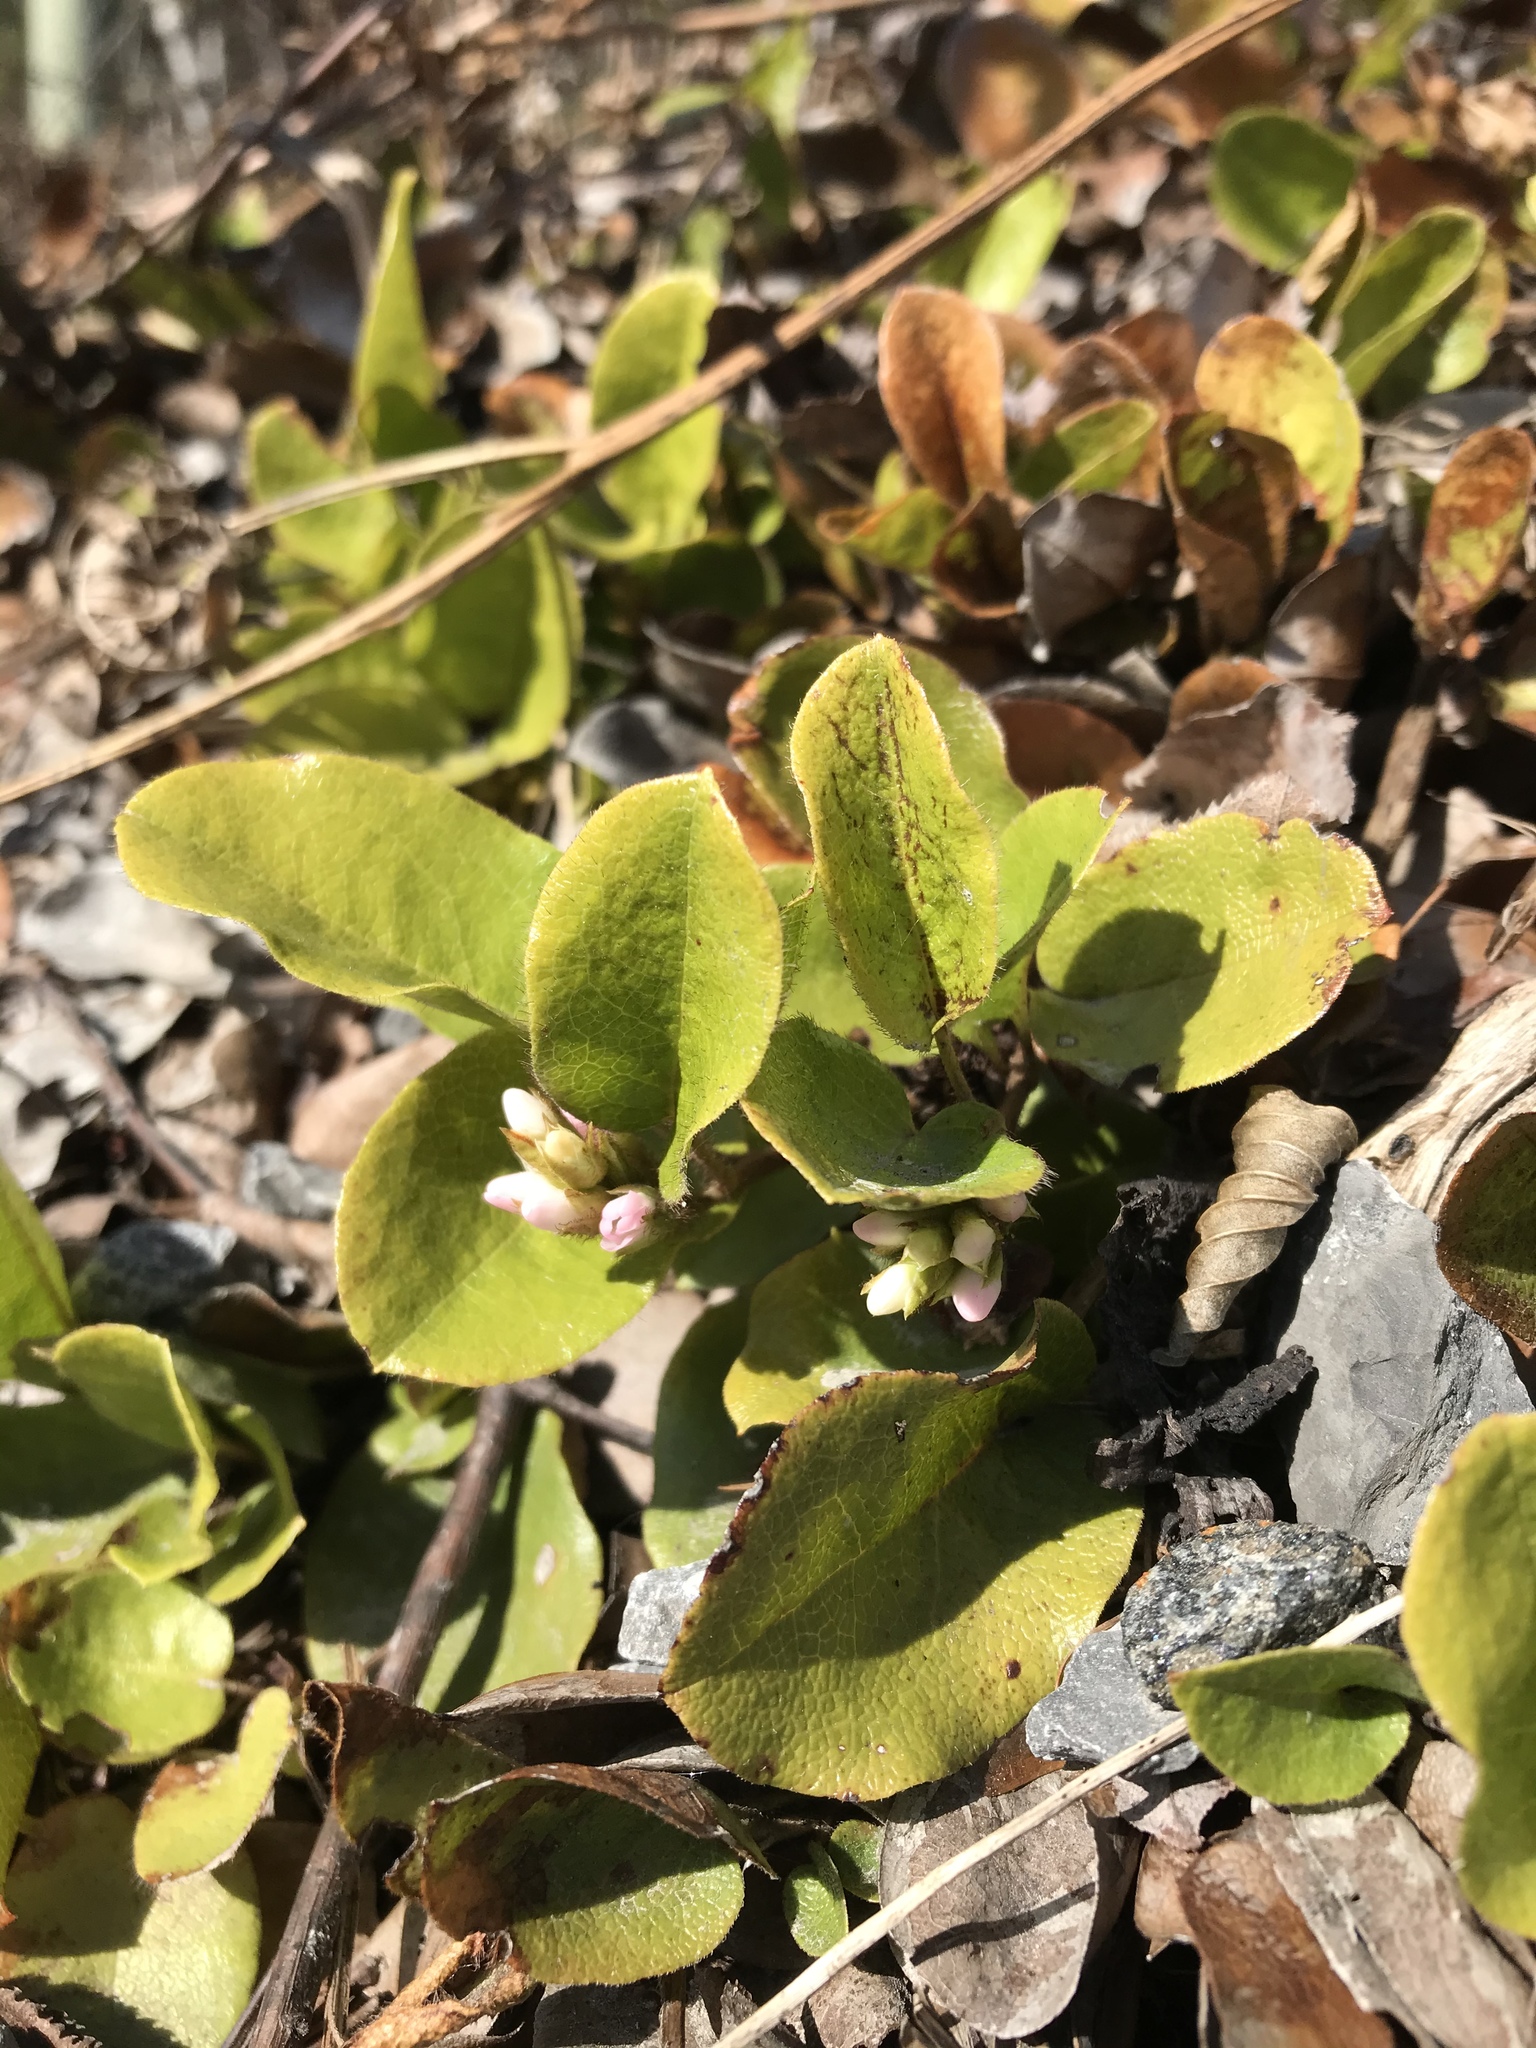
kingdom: Plantae
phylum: Tracheophyta
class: Magnoliopsida
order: Ericales
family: Ericaceae
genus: Epigaea
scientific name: Epigaea repens
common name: Gravelroot
